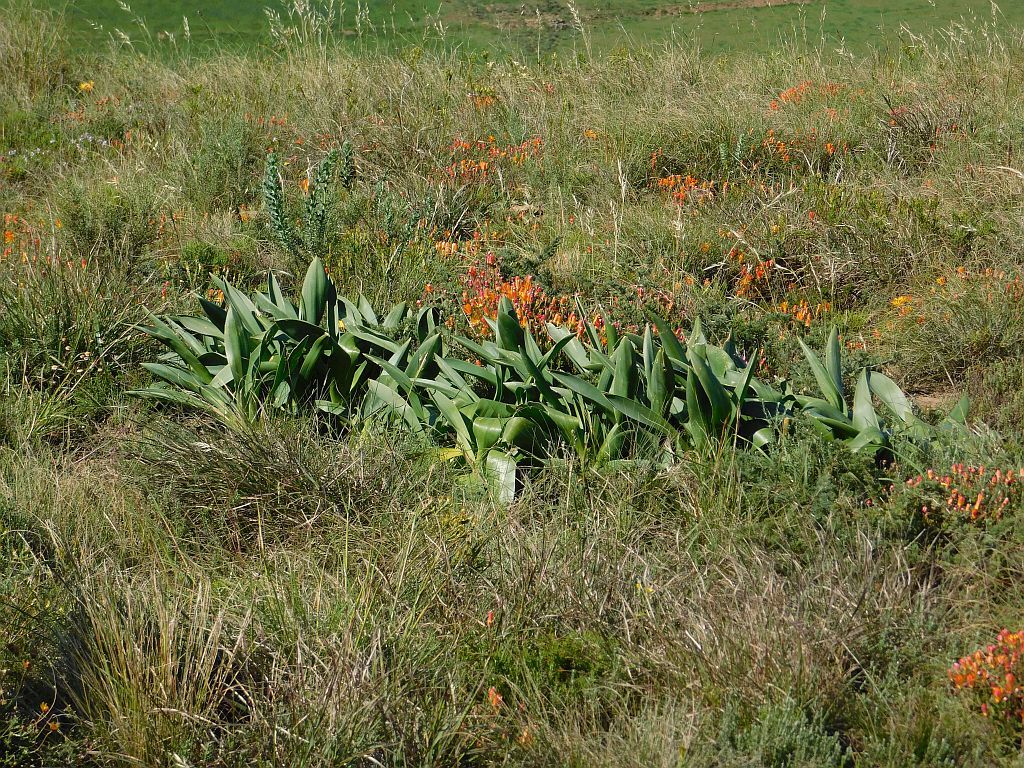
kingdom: Plantae
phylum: Tracheophyta
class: Liliopsida
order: Asparagales
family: Asparagaceae
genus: Drimia
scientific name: Drimia capensis
